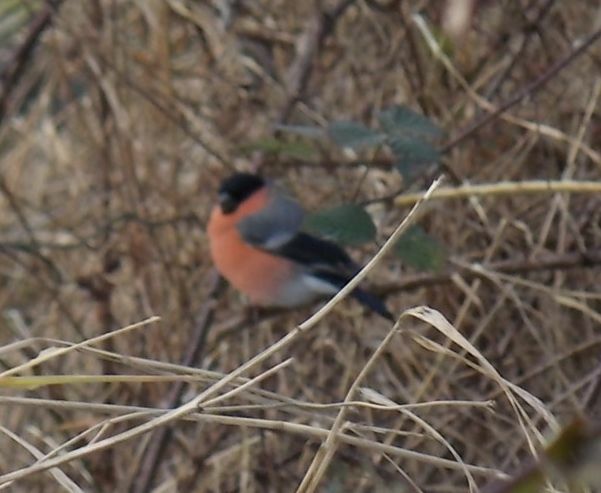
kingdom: Animalia
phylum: Chordata
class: Aves
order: Passeriformes
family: Fringillidae
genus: Pyrrhula
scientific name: Pyrrhula pyrrhula
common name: Eurasian bullfinch
